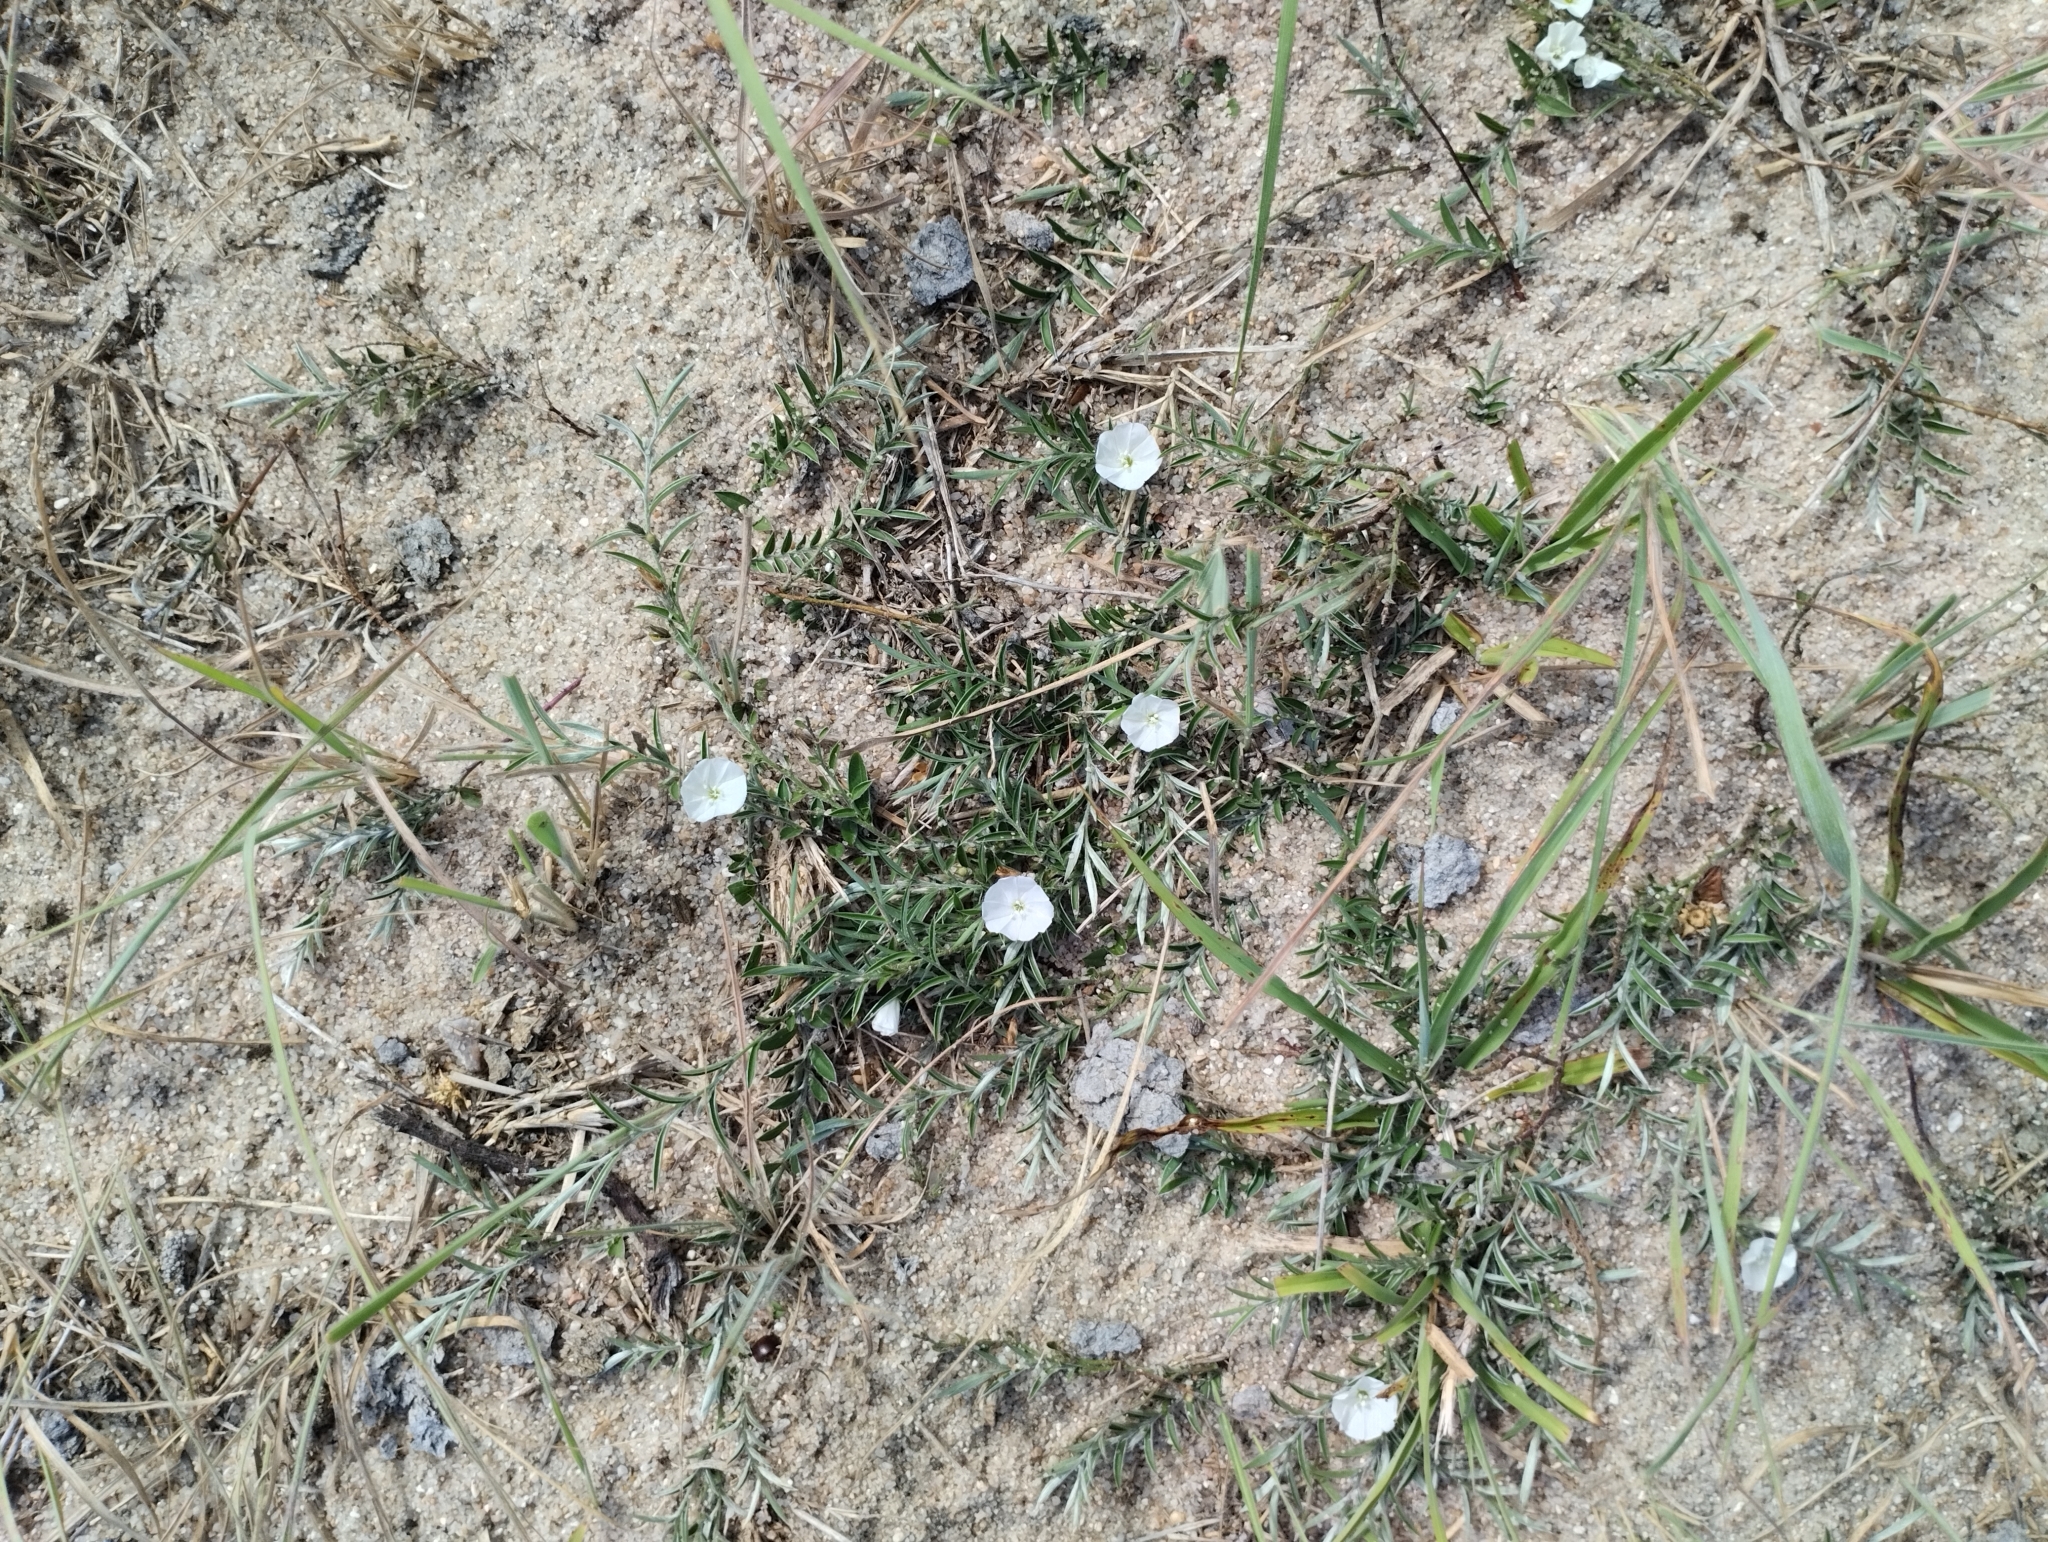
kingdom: Plantae
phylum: Tracheophyta
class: Magnoliopsida
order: Solanales
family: Convolvulaceae
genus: Evolvulus
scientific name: Evolvulus sericeus
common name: Blue dots
